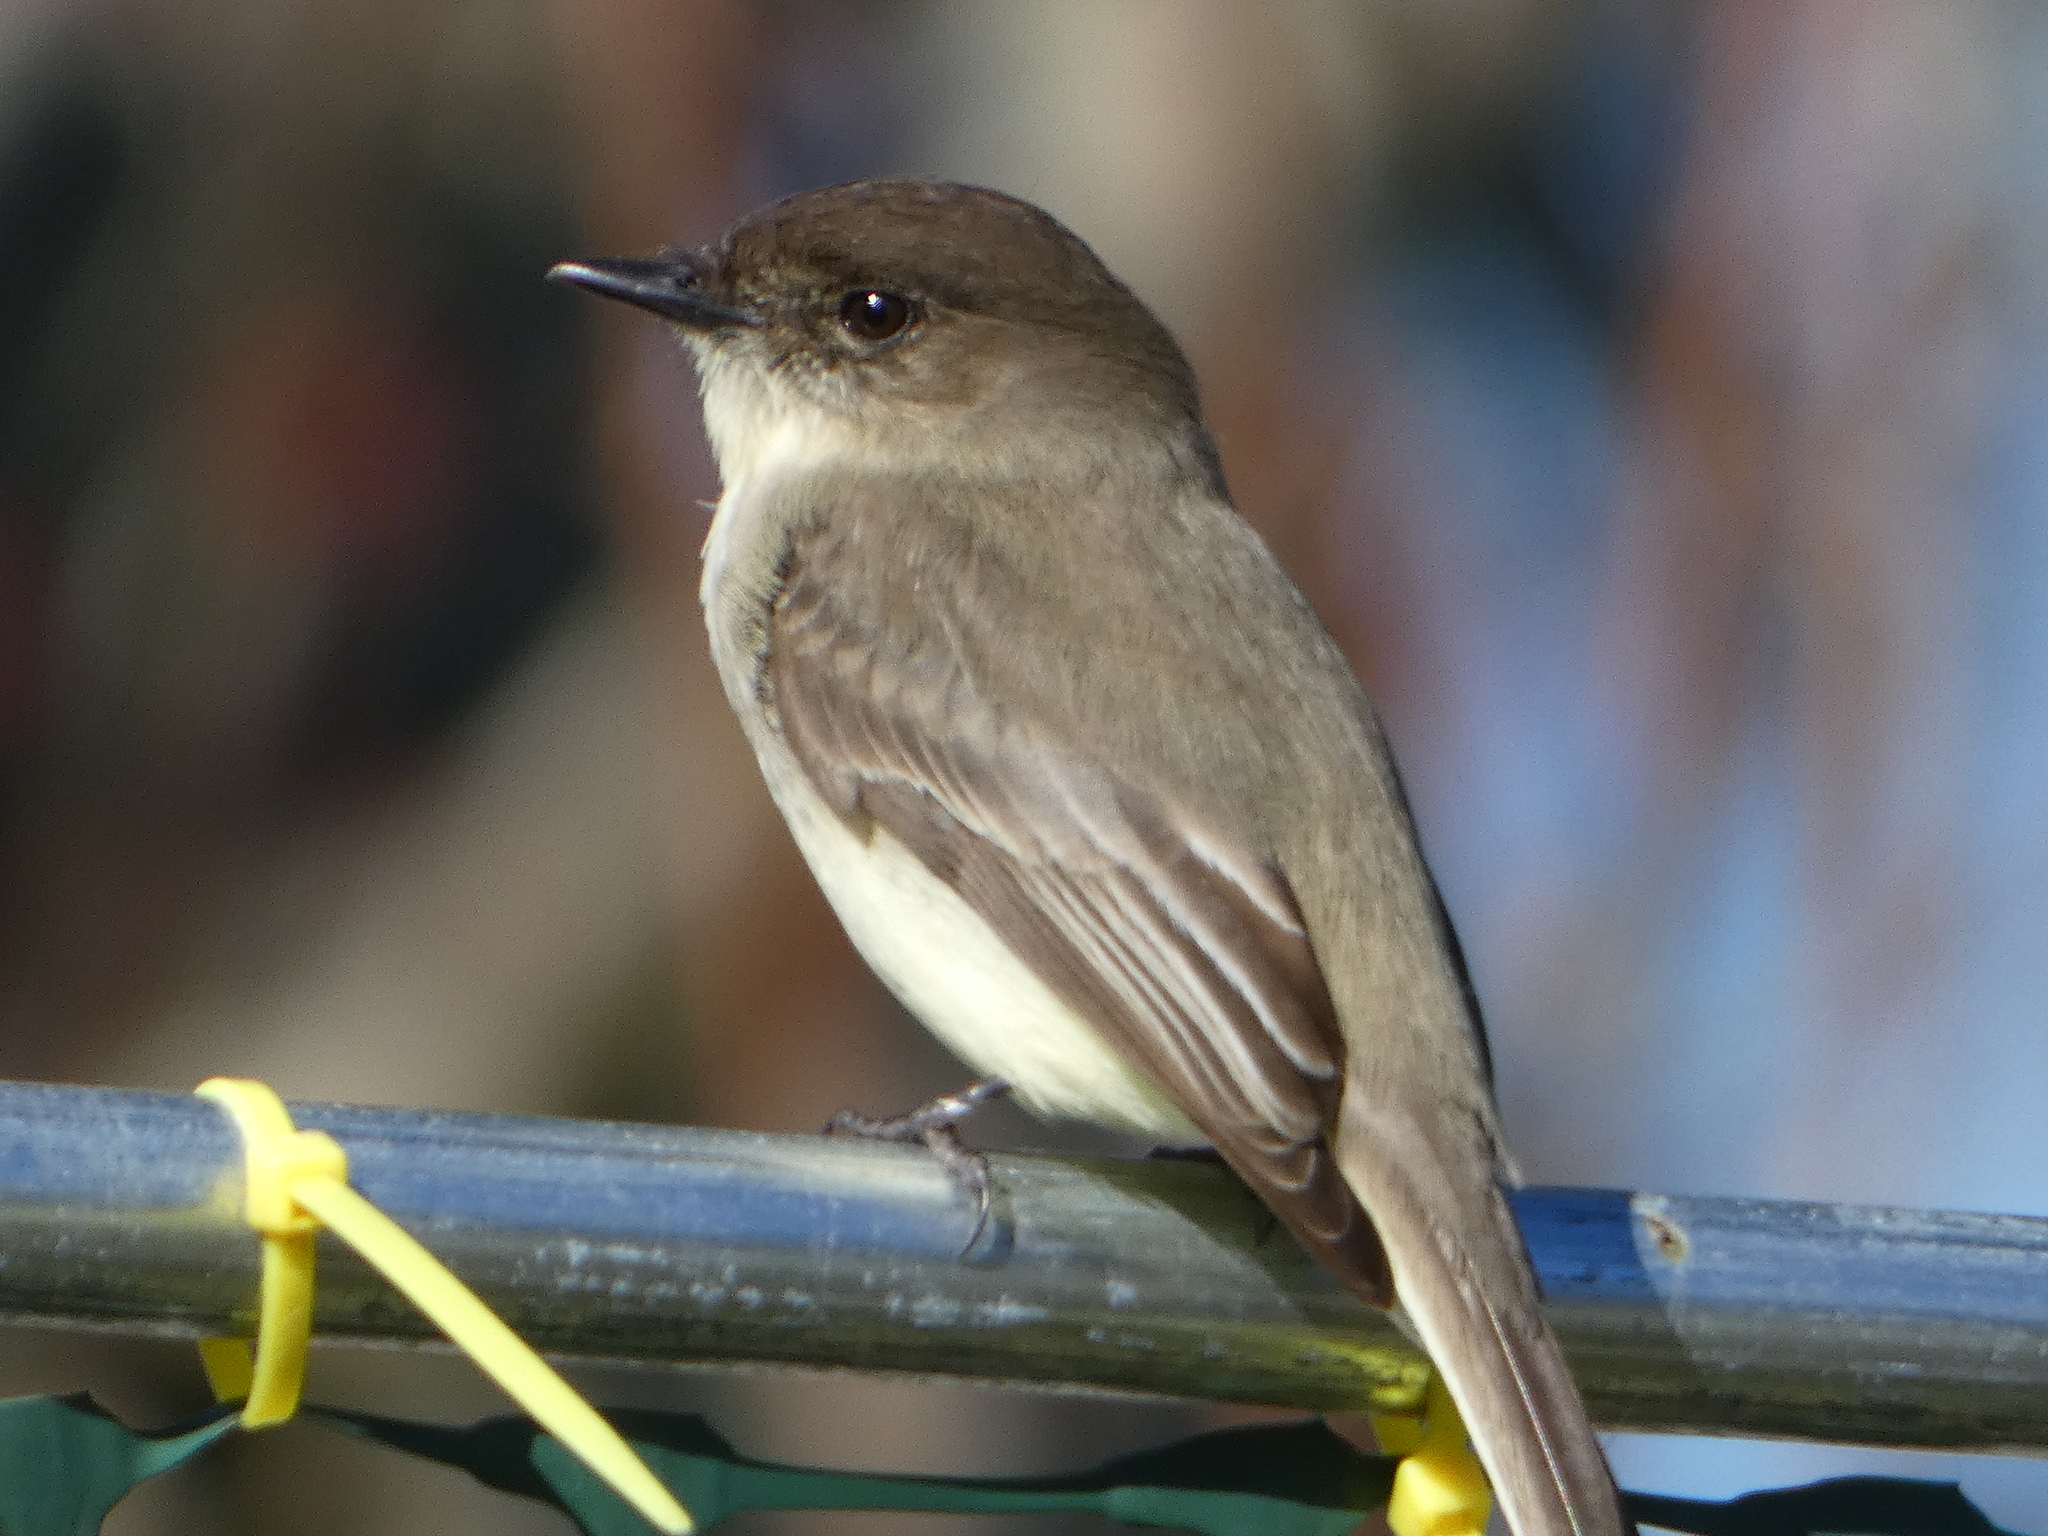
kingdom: Animalia
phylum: Chordata
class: Aves
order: Passeriformes
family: Tyrannidae
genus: Sayornis
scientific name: Sayornis phoebe
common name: Eastern phoebe
